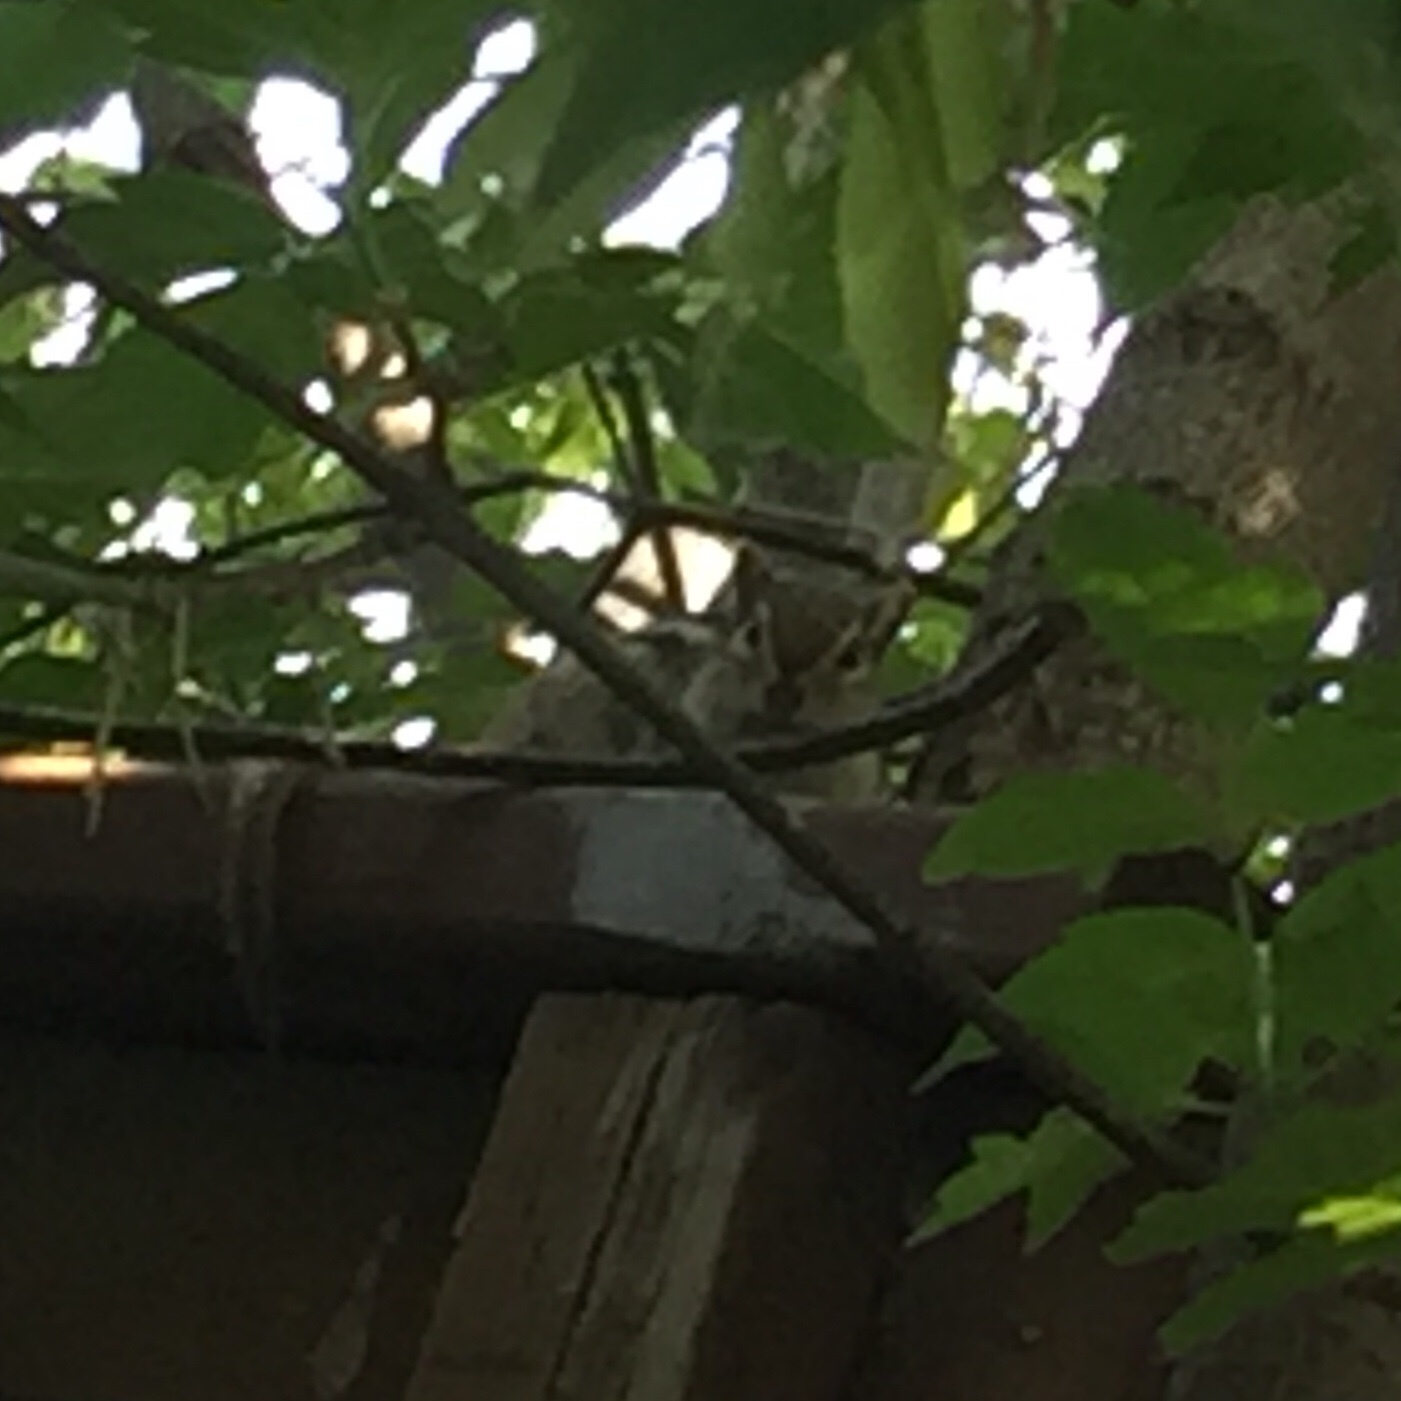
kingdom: Animalia
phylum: Chordata
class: Mammalia
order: Rodentia
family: Sciuridae
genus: Tamias
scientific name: Tamias striatus
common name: Eastern chipmunk
